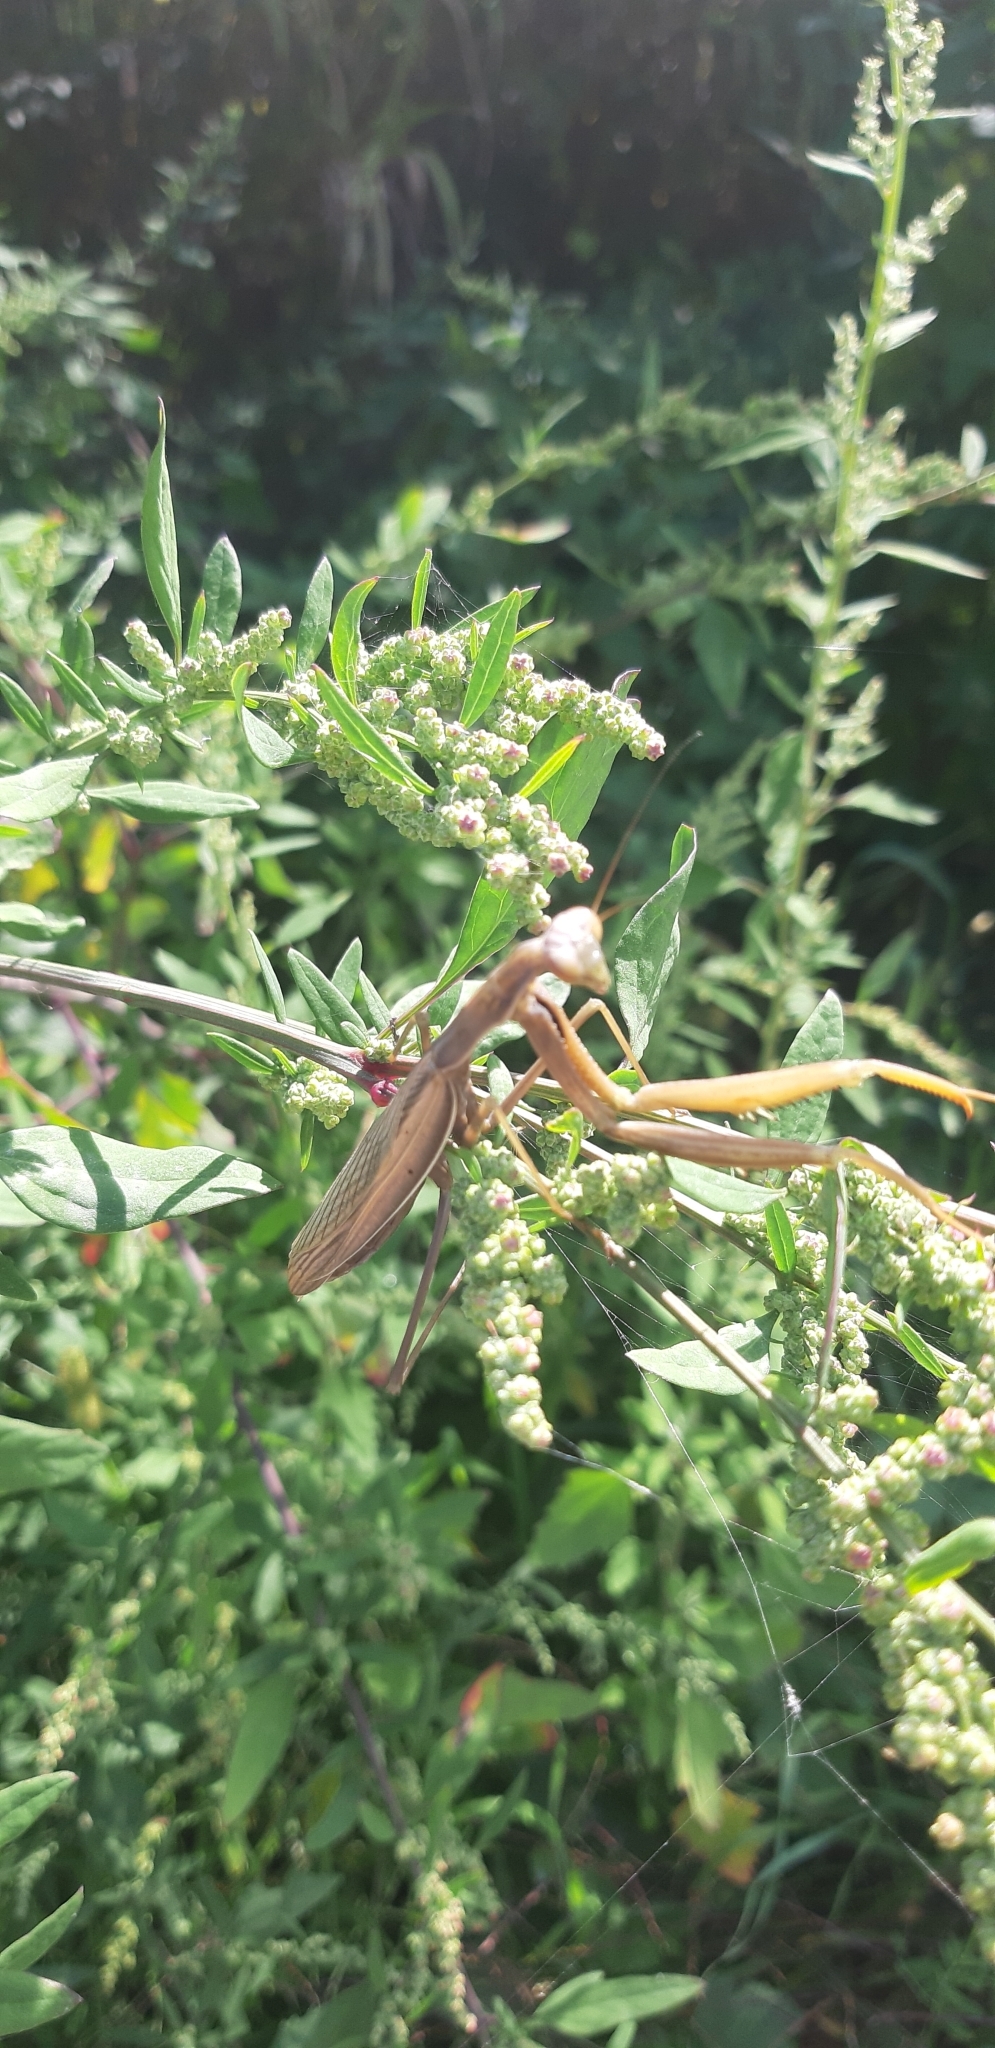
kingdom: Animalia
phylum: Arthropoda
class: Insecta
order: Mantodea
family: Mantidae
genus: Mantis
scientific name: Mantis religiosa
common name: Praying mantis
